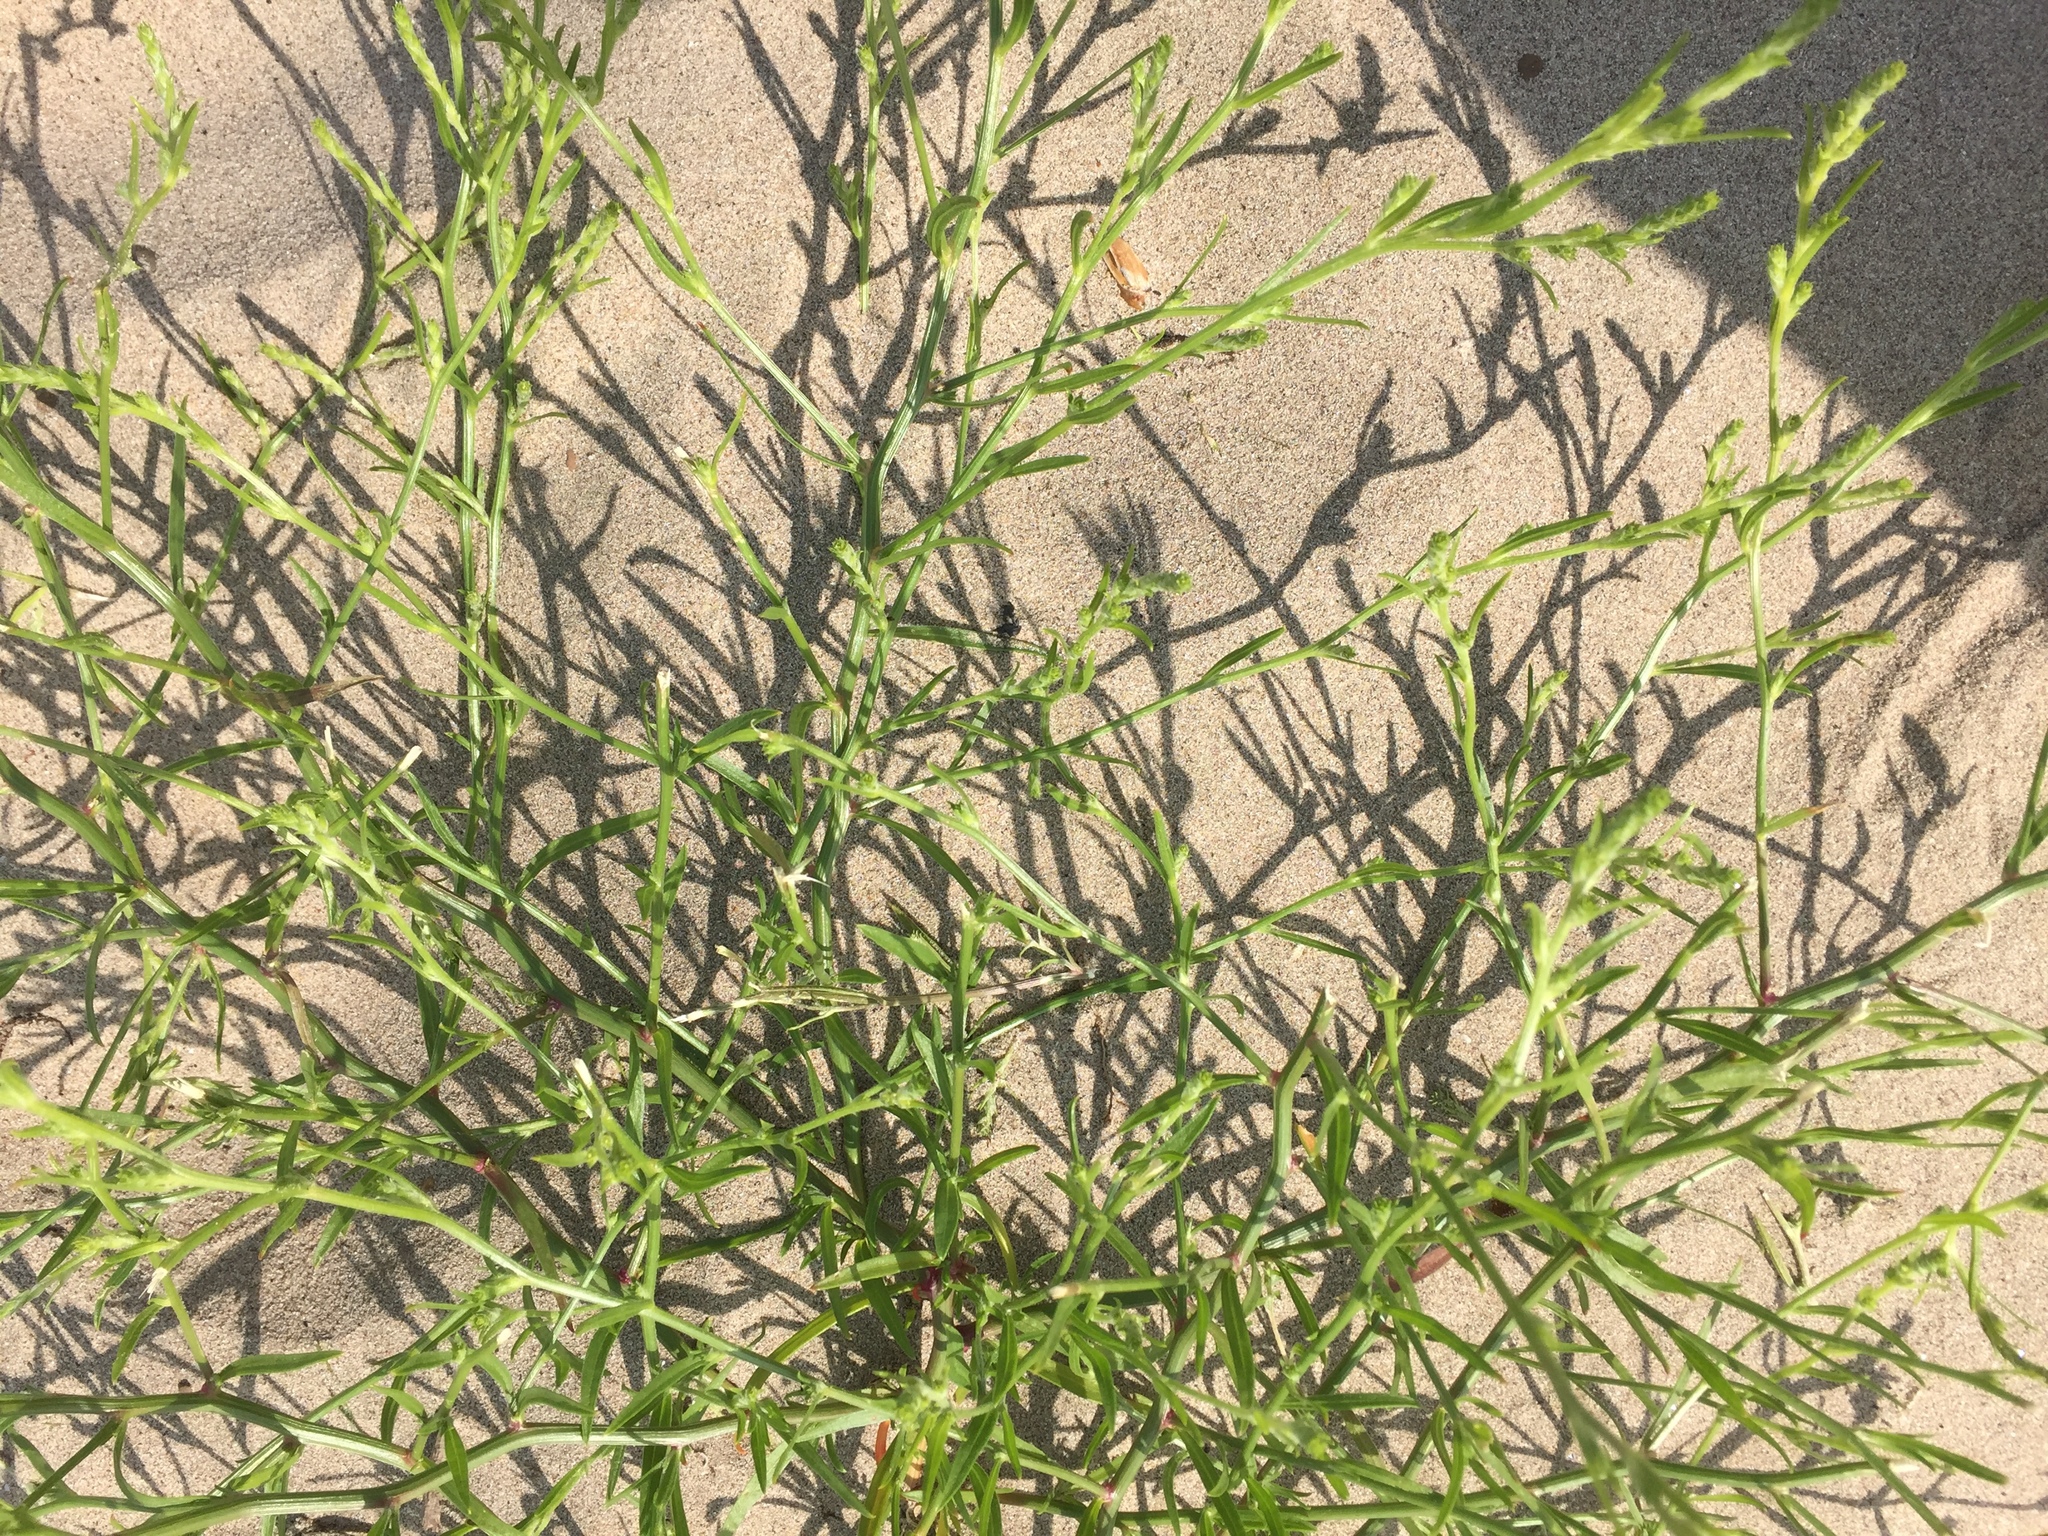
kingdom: Plantae
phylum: Tracheophyta
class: Magnoliopsida
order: Caryophyllales
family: Amaranthaceae
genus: Corispermum
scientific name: Corispermum intermedium
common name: Hyssop-leaved tickseed
